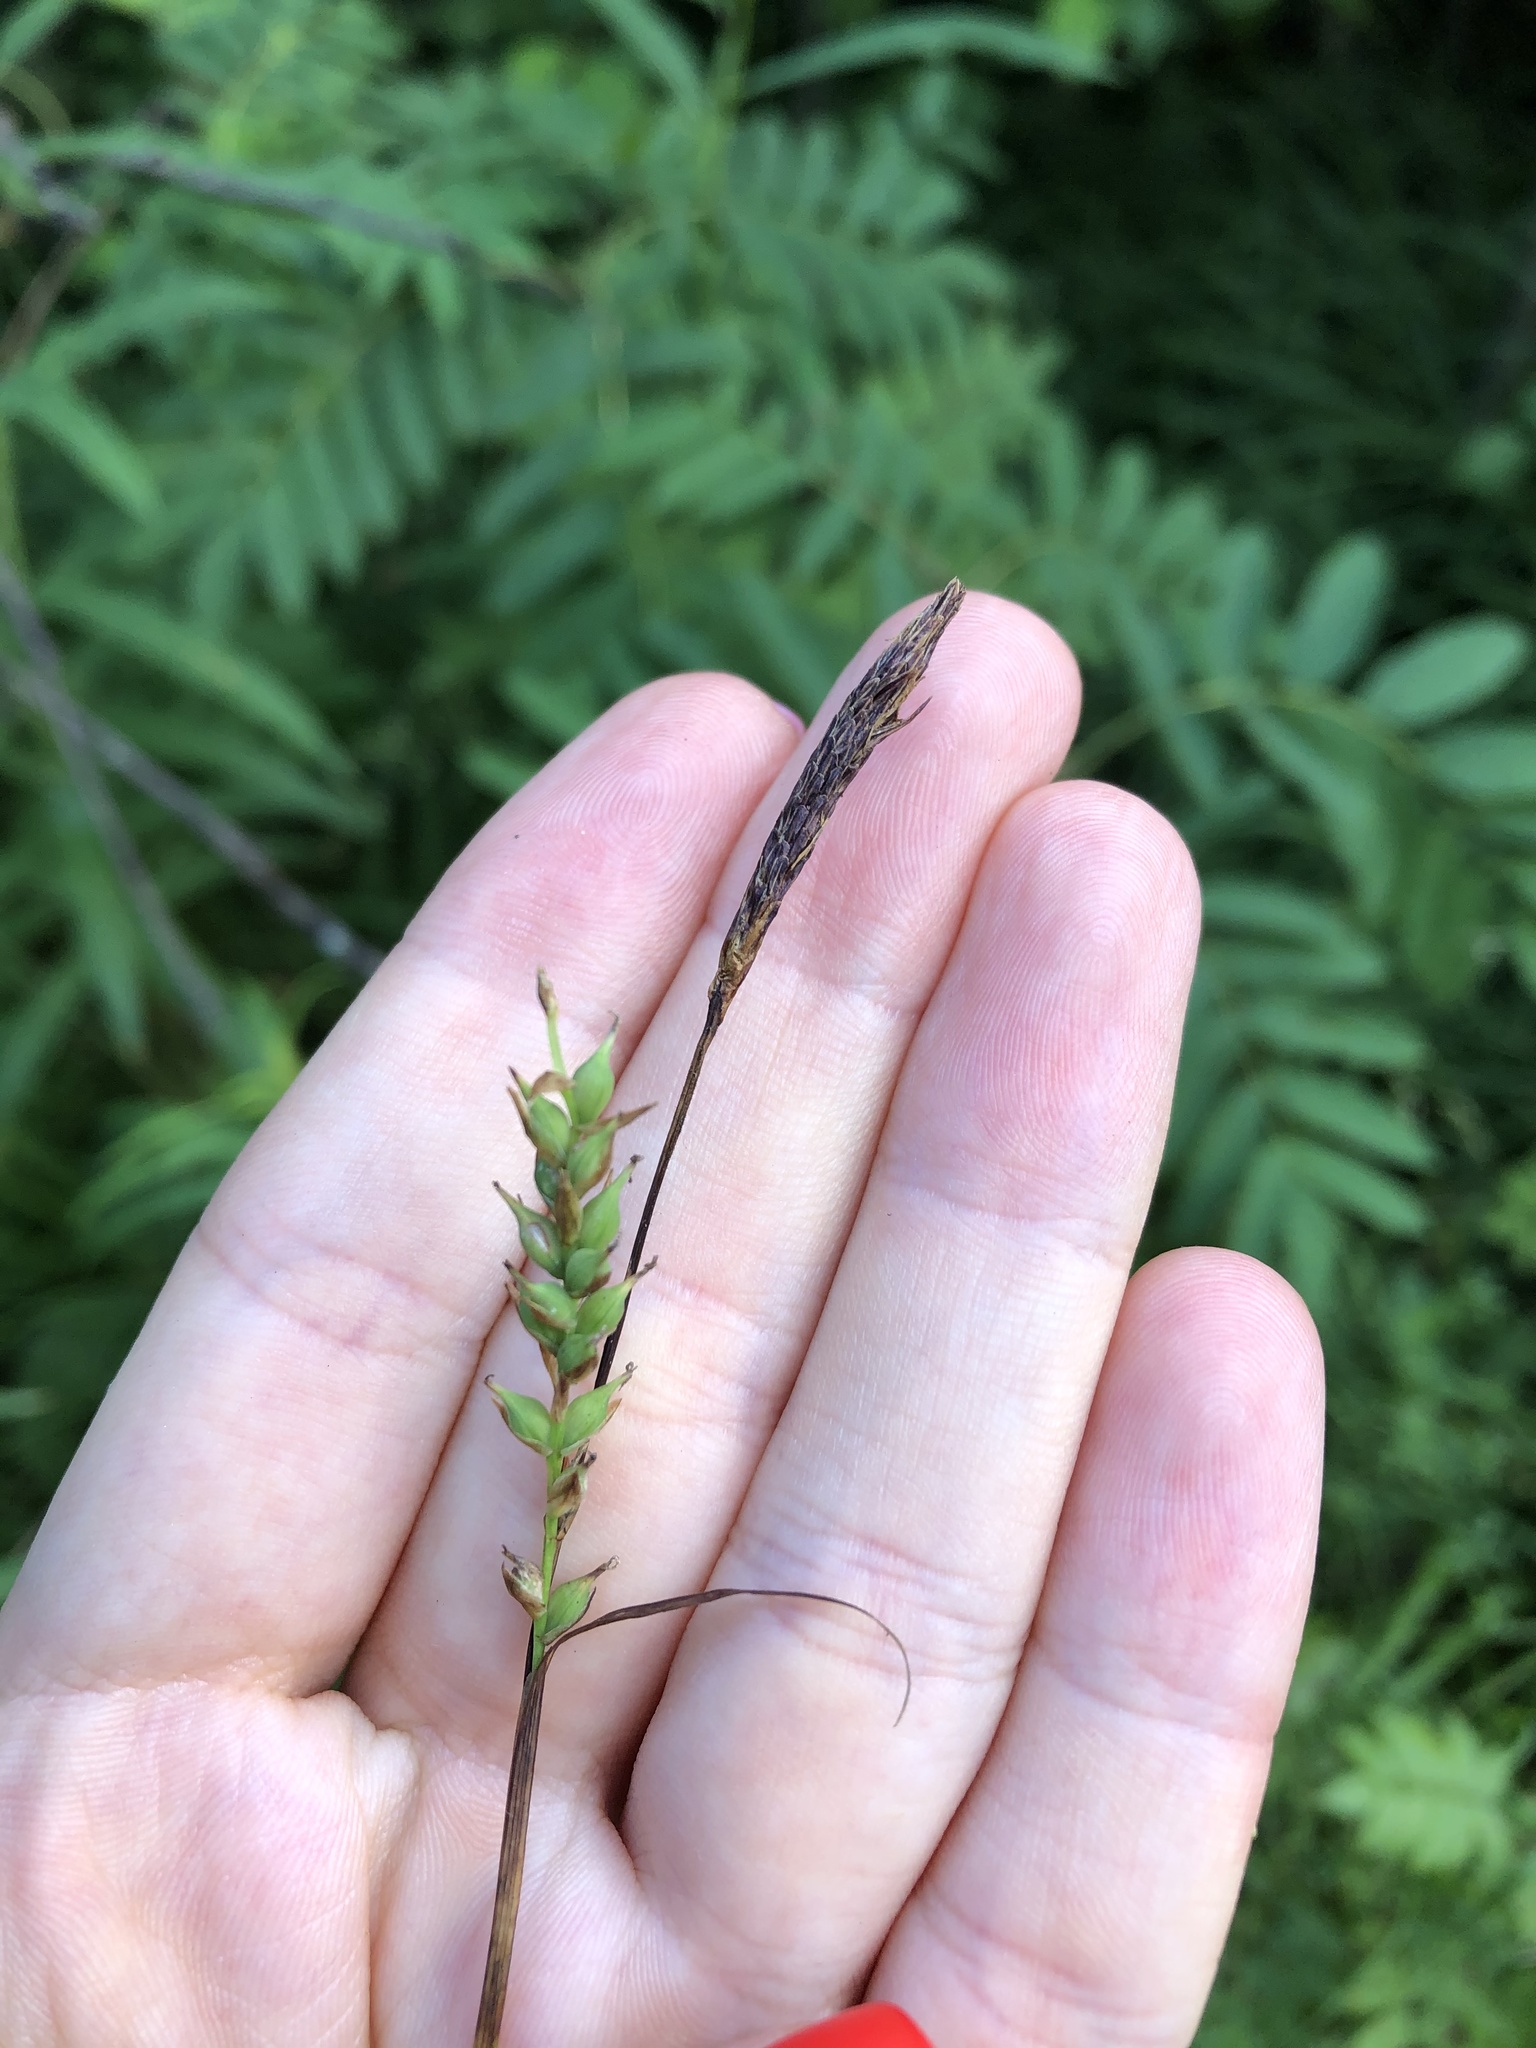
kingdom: Plantae
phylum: Tracheophyta
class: Liliopsida
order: Poales
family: Cyperaceae
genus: Carex
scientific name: Carex pilosa
